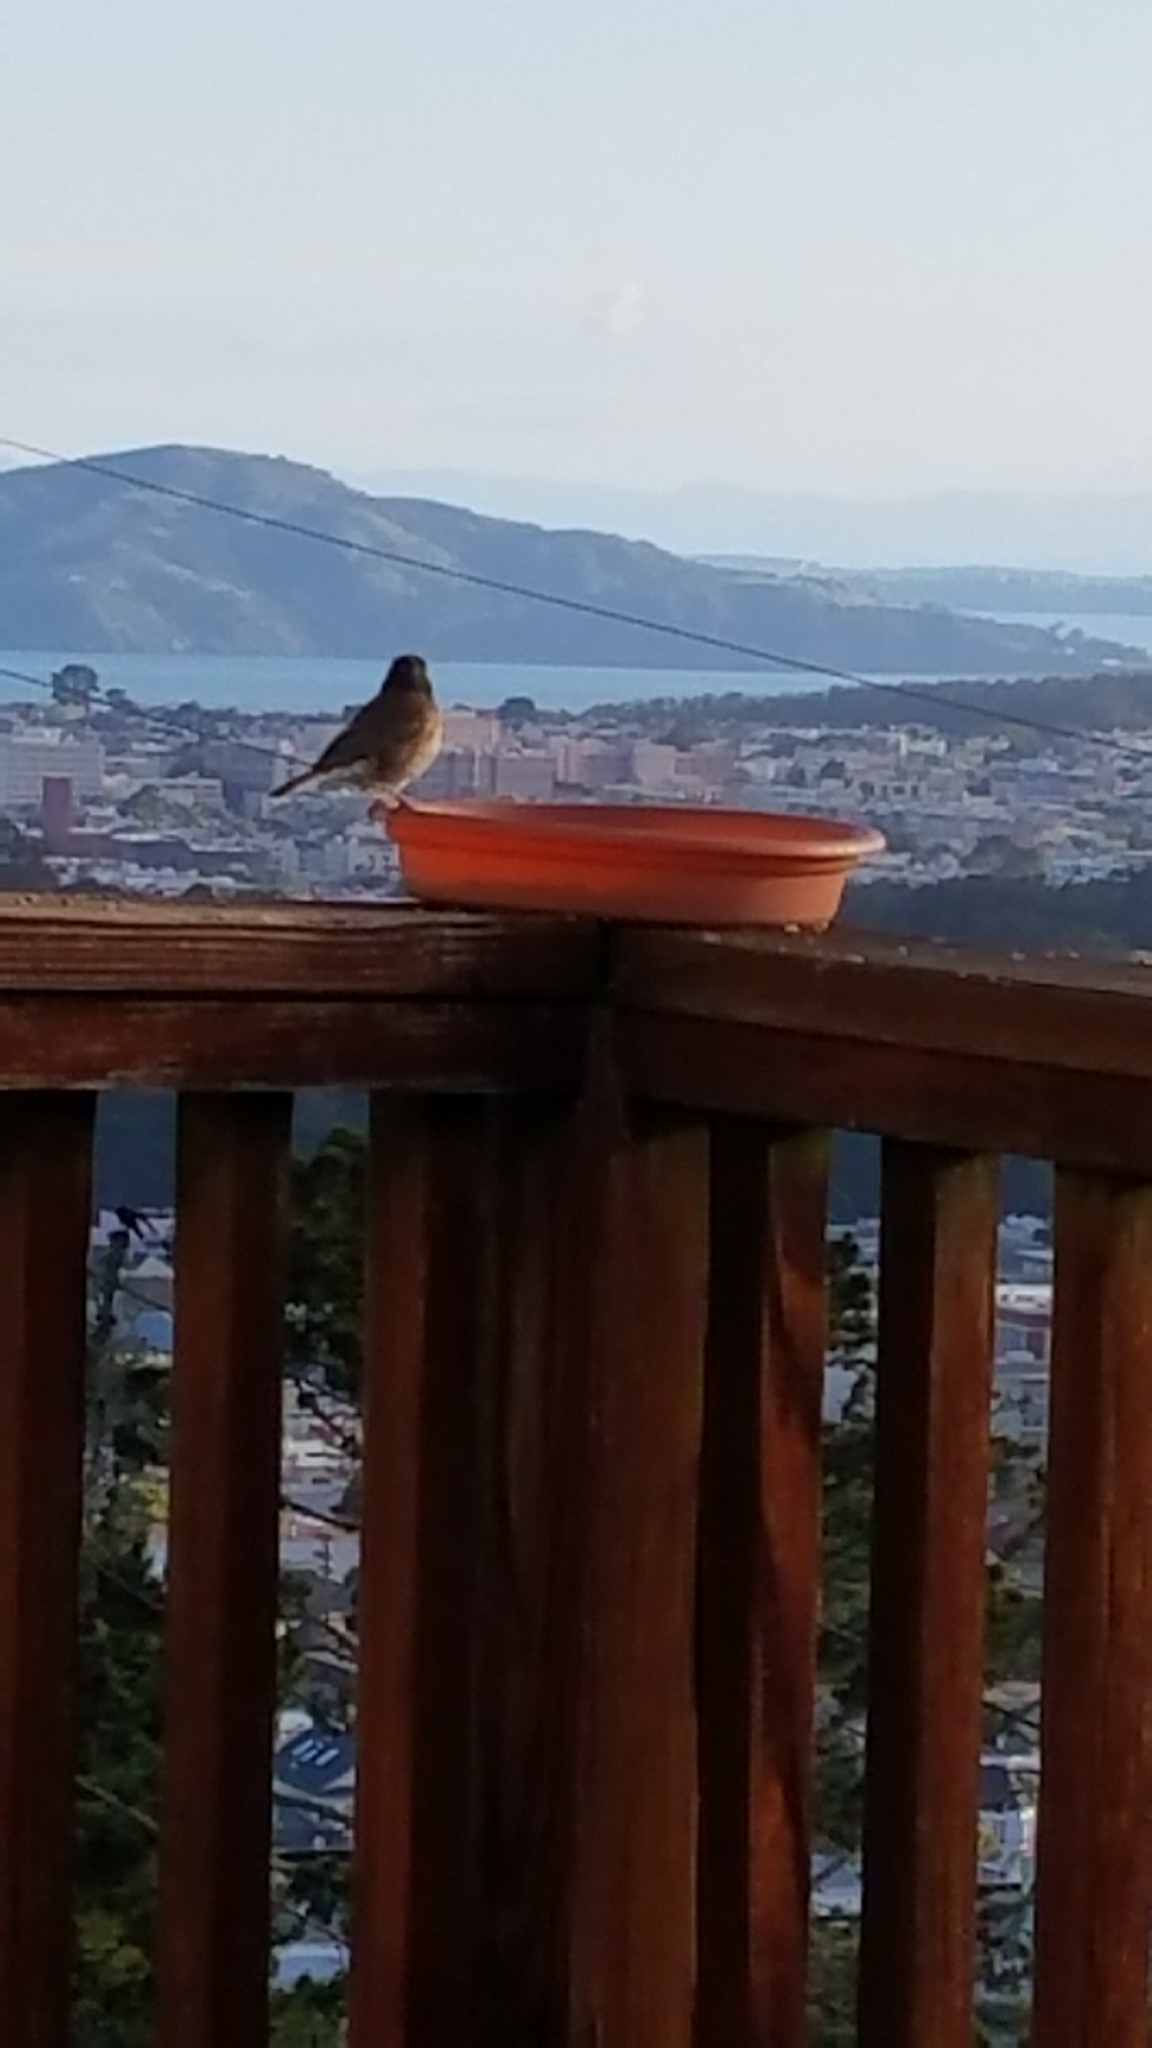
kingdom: Animalia
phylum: Chordata
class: Aves
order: Passeriformes
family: Passerellidae
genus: Junco
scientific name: Junco hyemalis
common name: Dark-eyed junco
